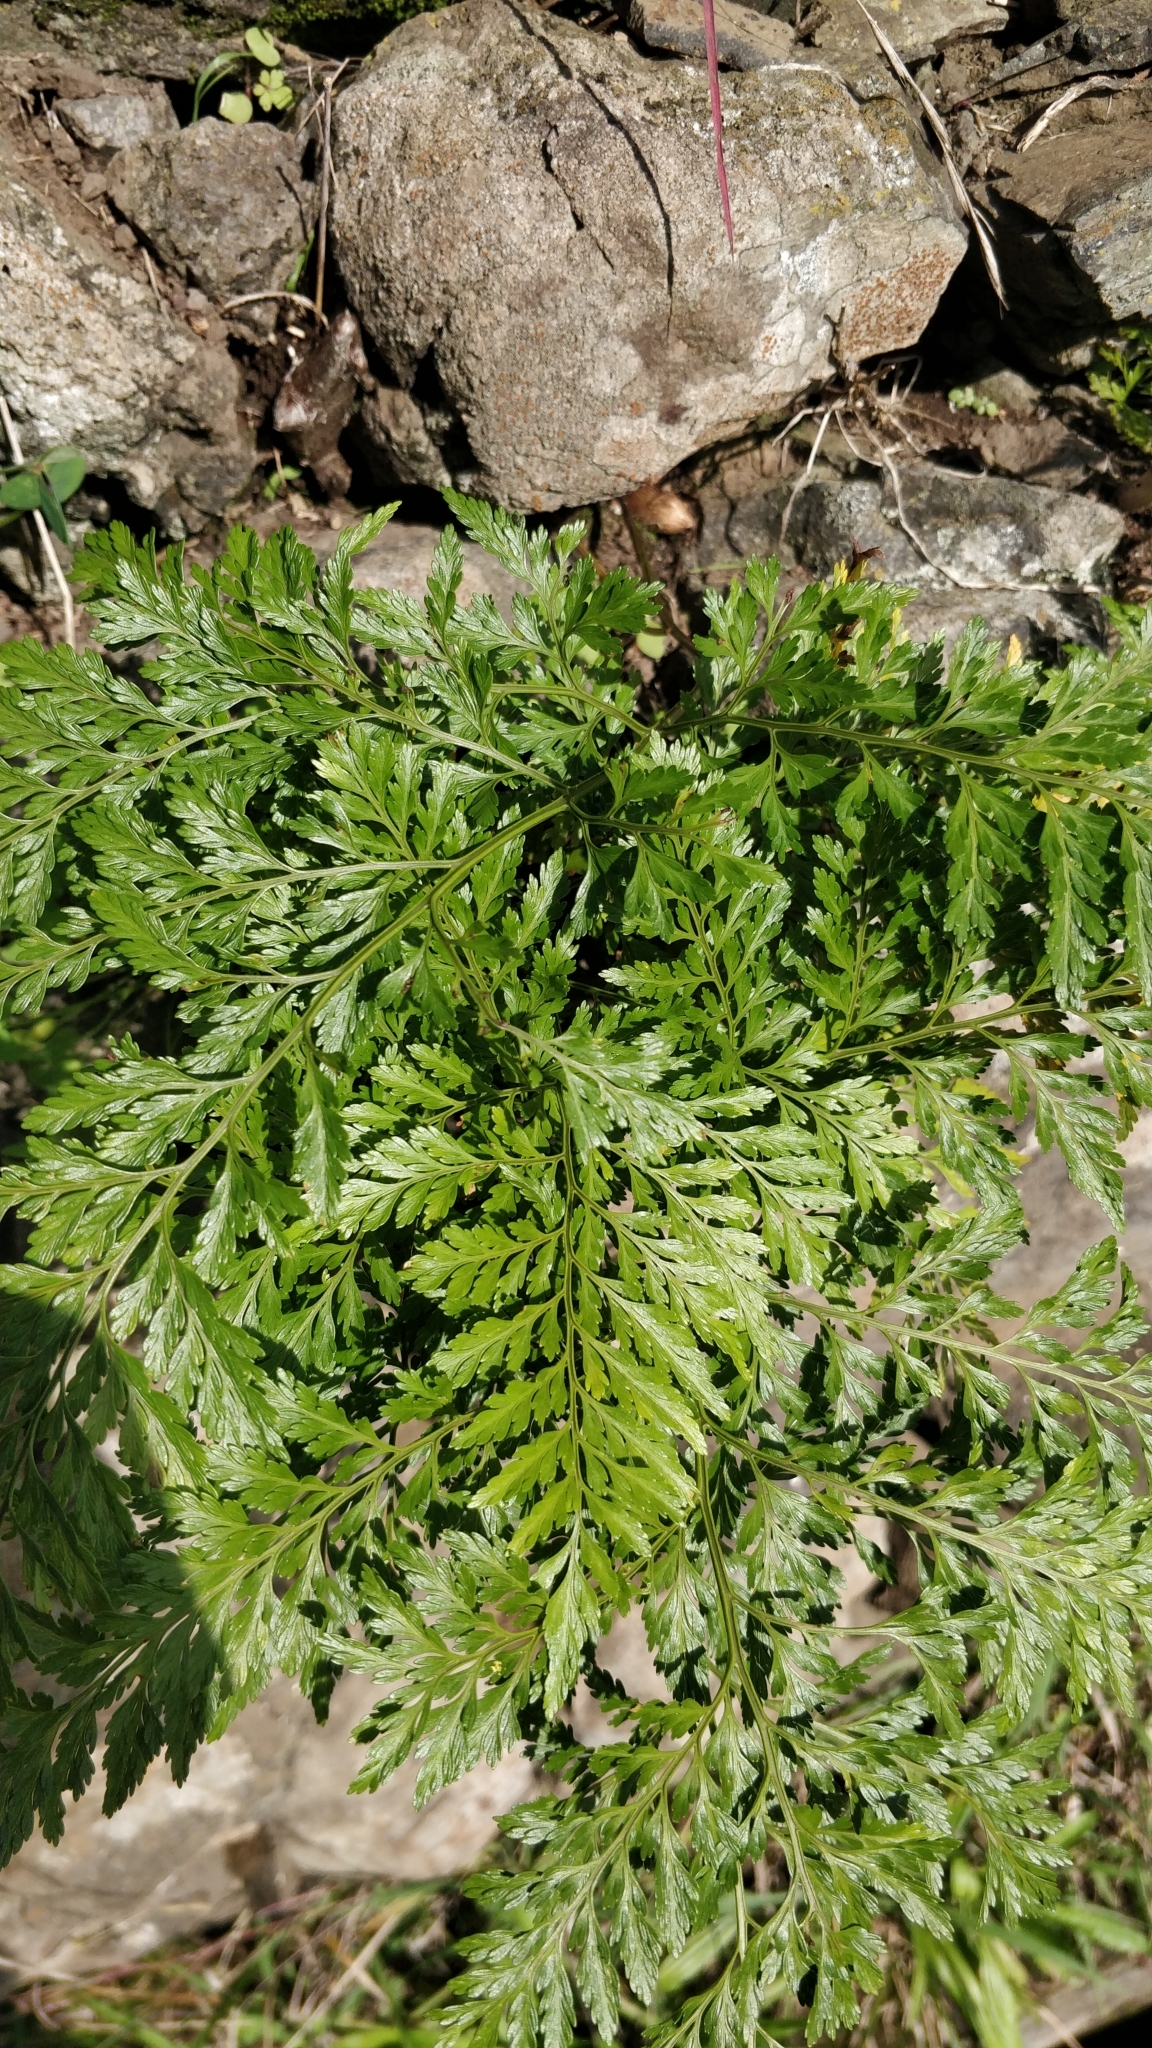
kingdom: Plantae
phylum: Tracheophyta
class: Polypodiopsida
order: Polypodiales
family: Davalliaceae
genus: Davallia
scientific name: Davallia canariensis
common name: Hare's-foot fern
